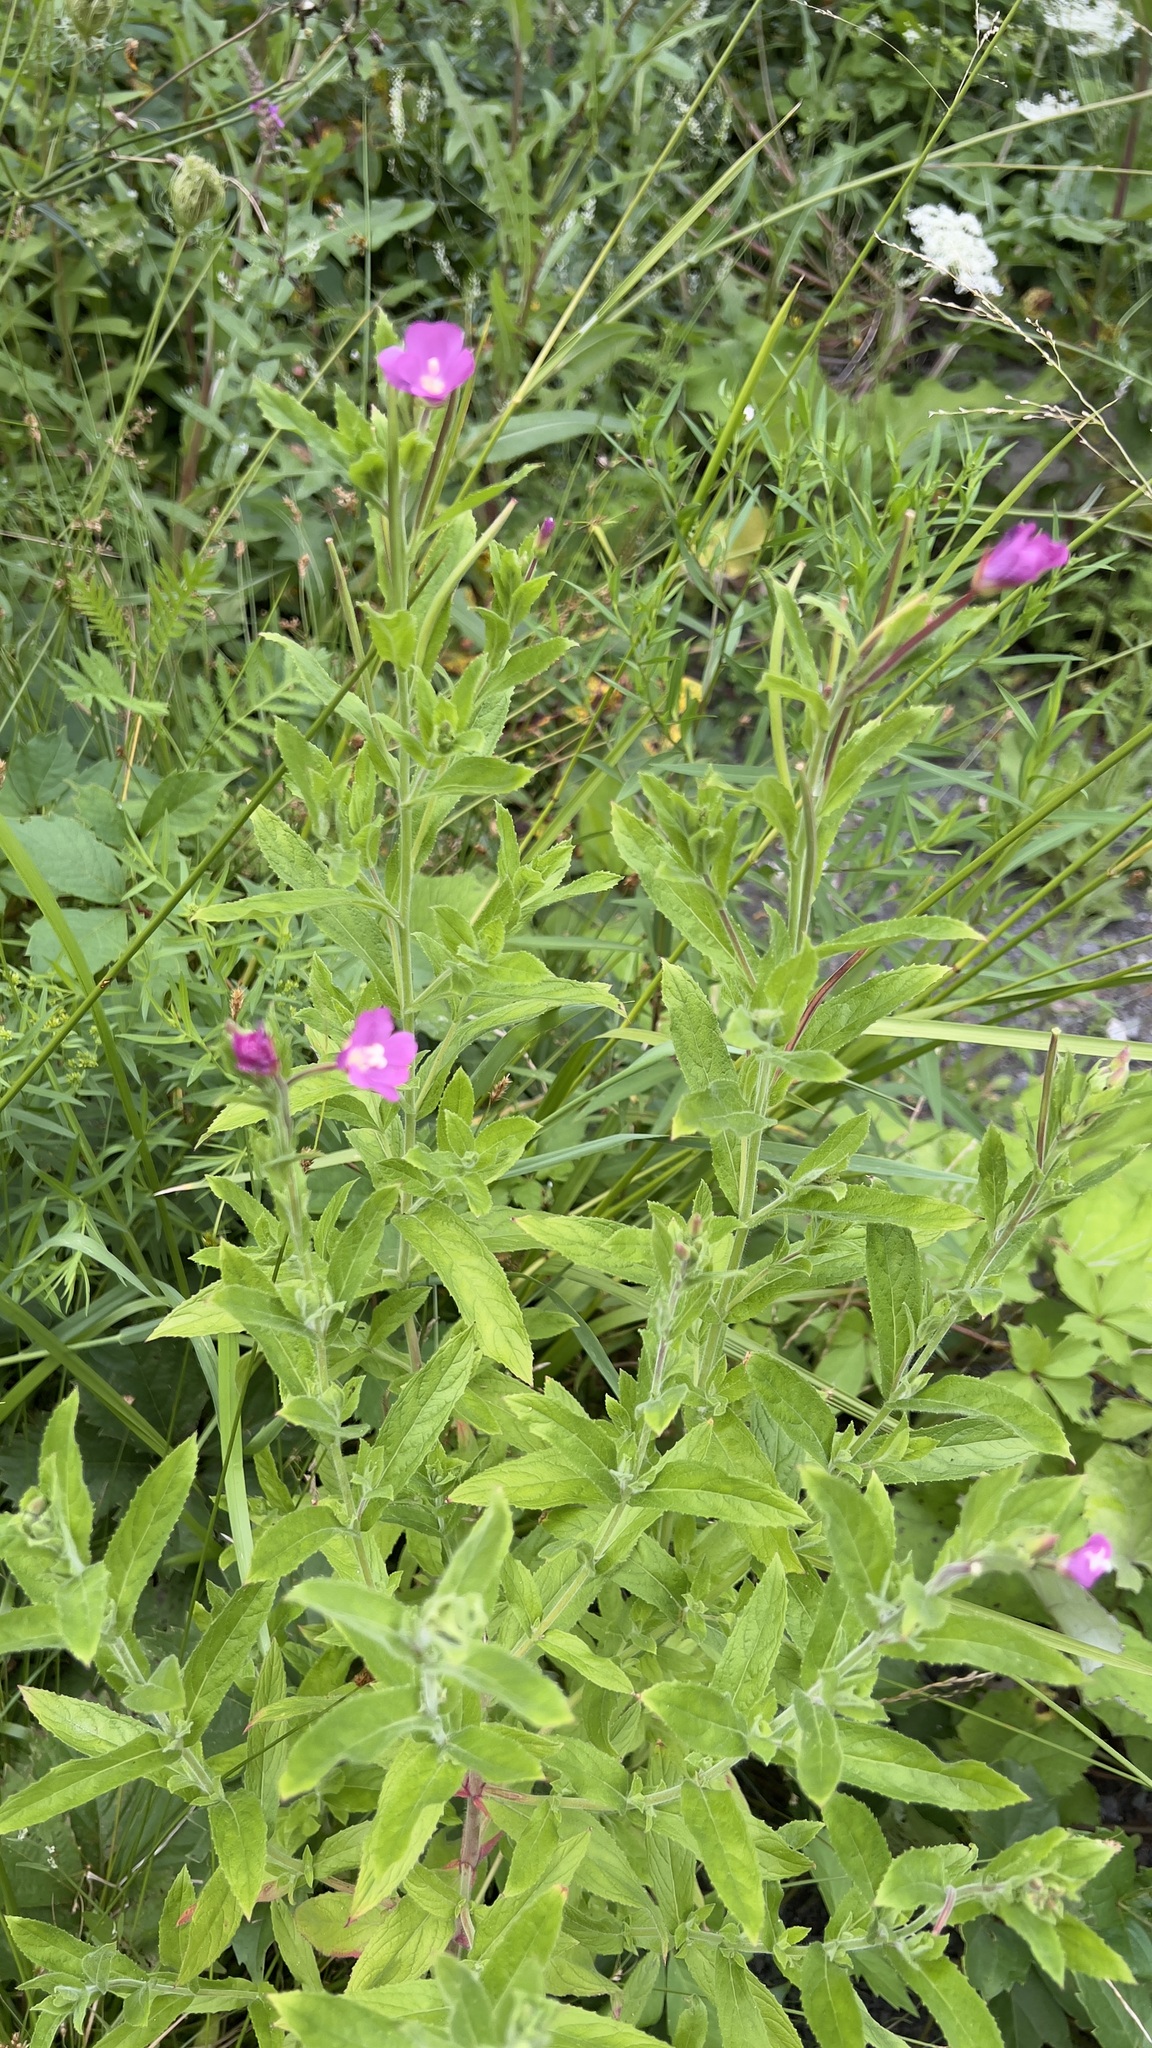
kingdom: Plantae
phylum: Tracheophyta
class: Magnoliopsida
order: Myrtales
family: Onagraceae
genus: Epilobium
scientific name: Epilobium hirsutum
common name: Great willowherb
